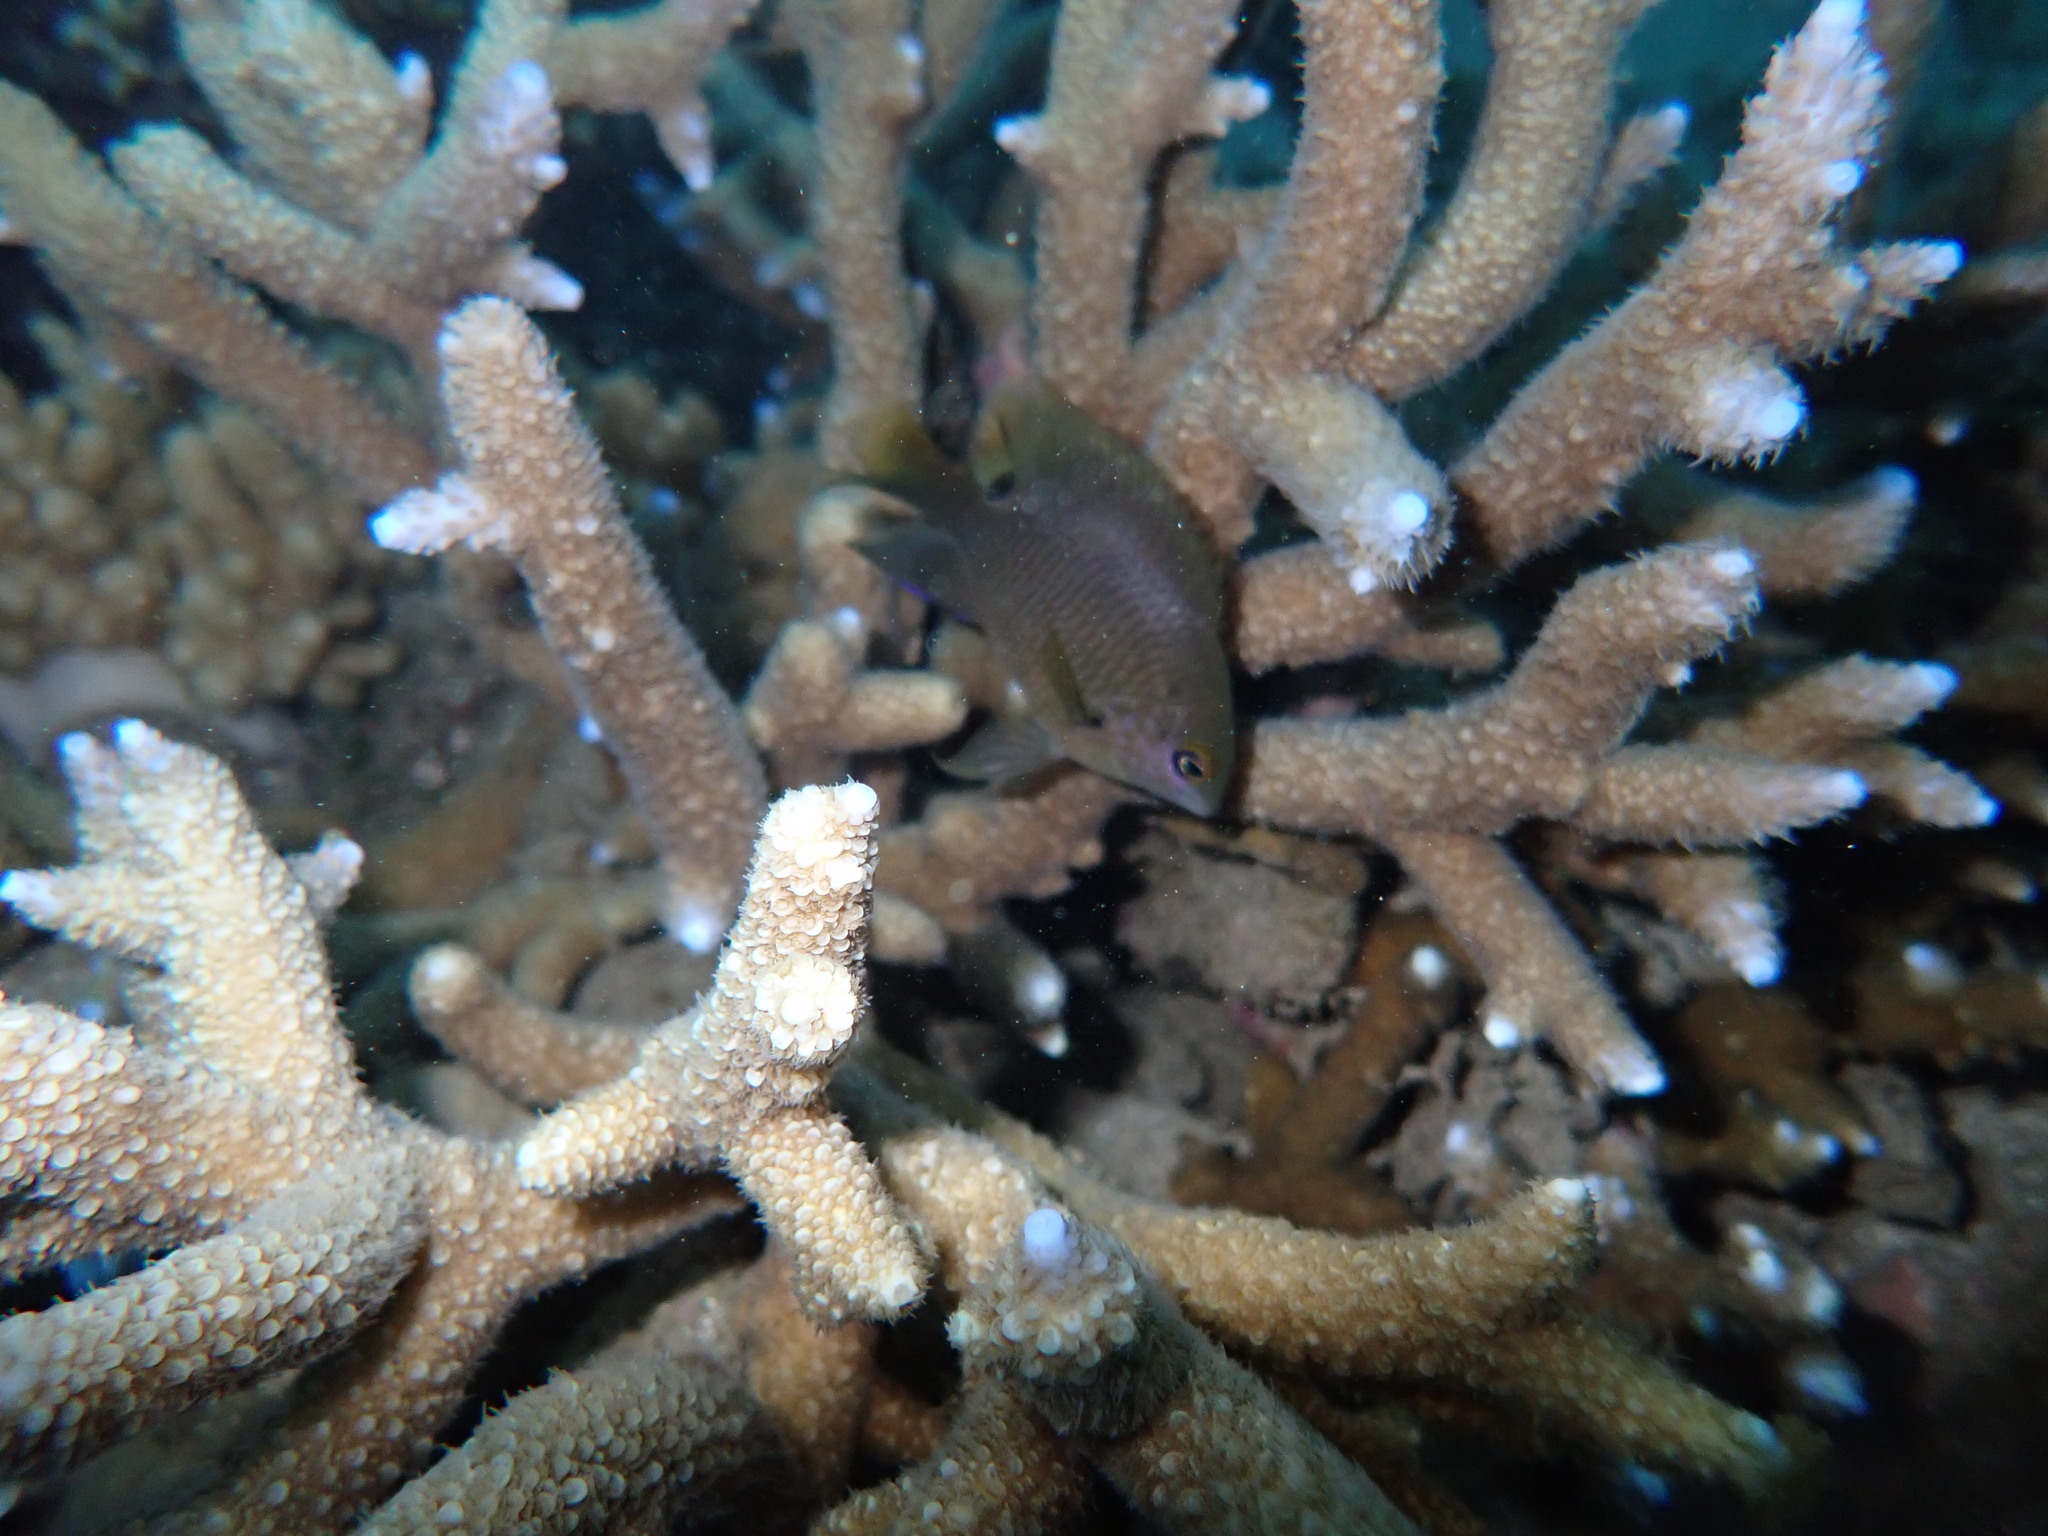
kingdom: Animalia
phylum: Chordata
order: Perciformes
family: Pomacentridae
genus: Stegastes
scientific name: Stegastes nigricans
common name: Dusky gregory
